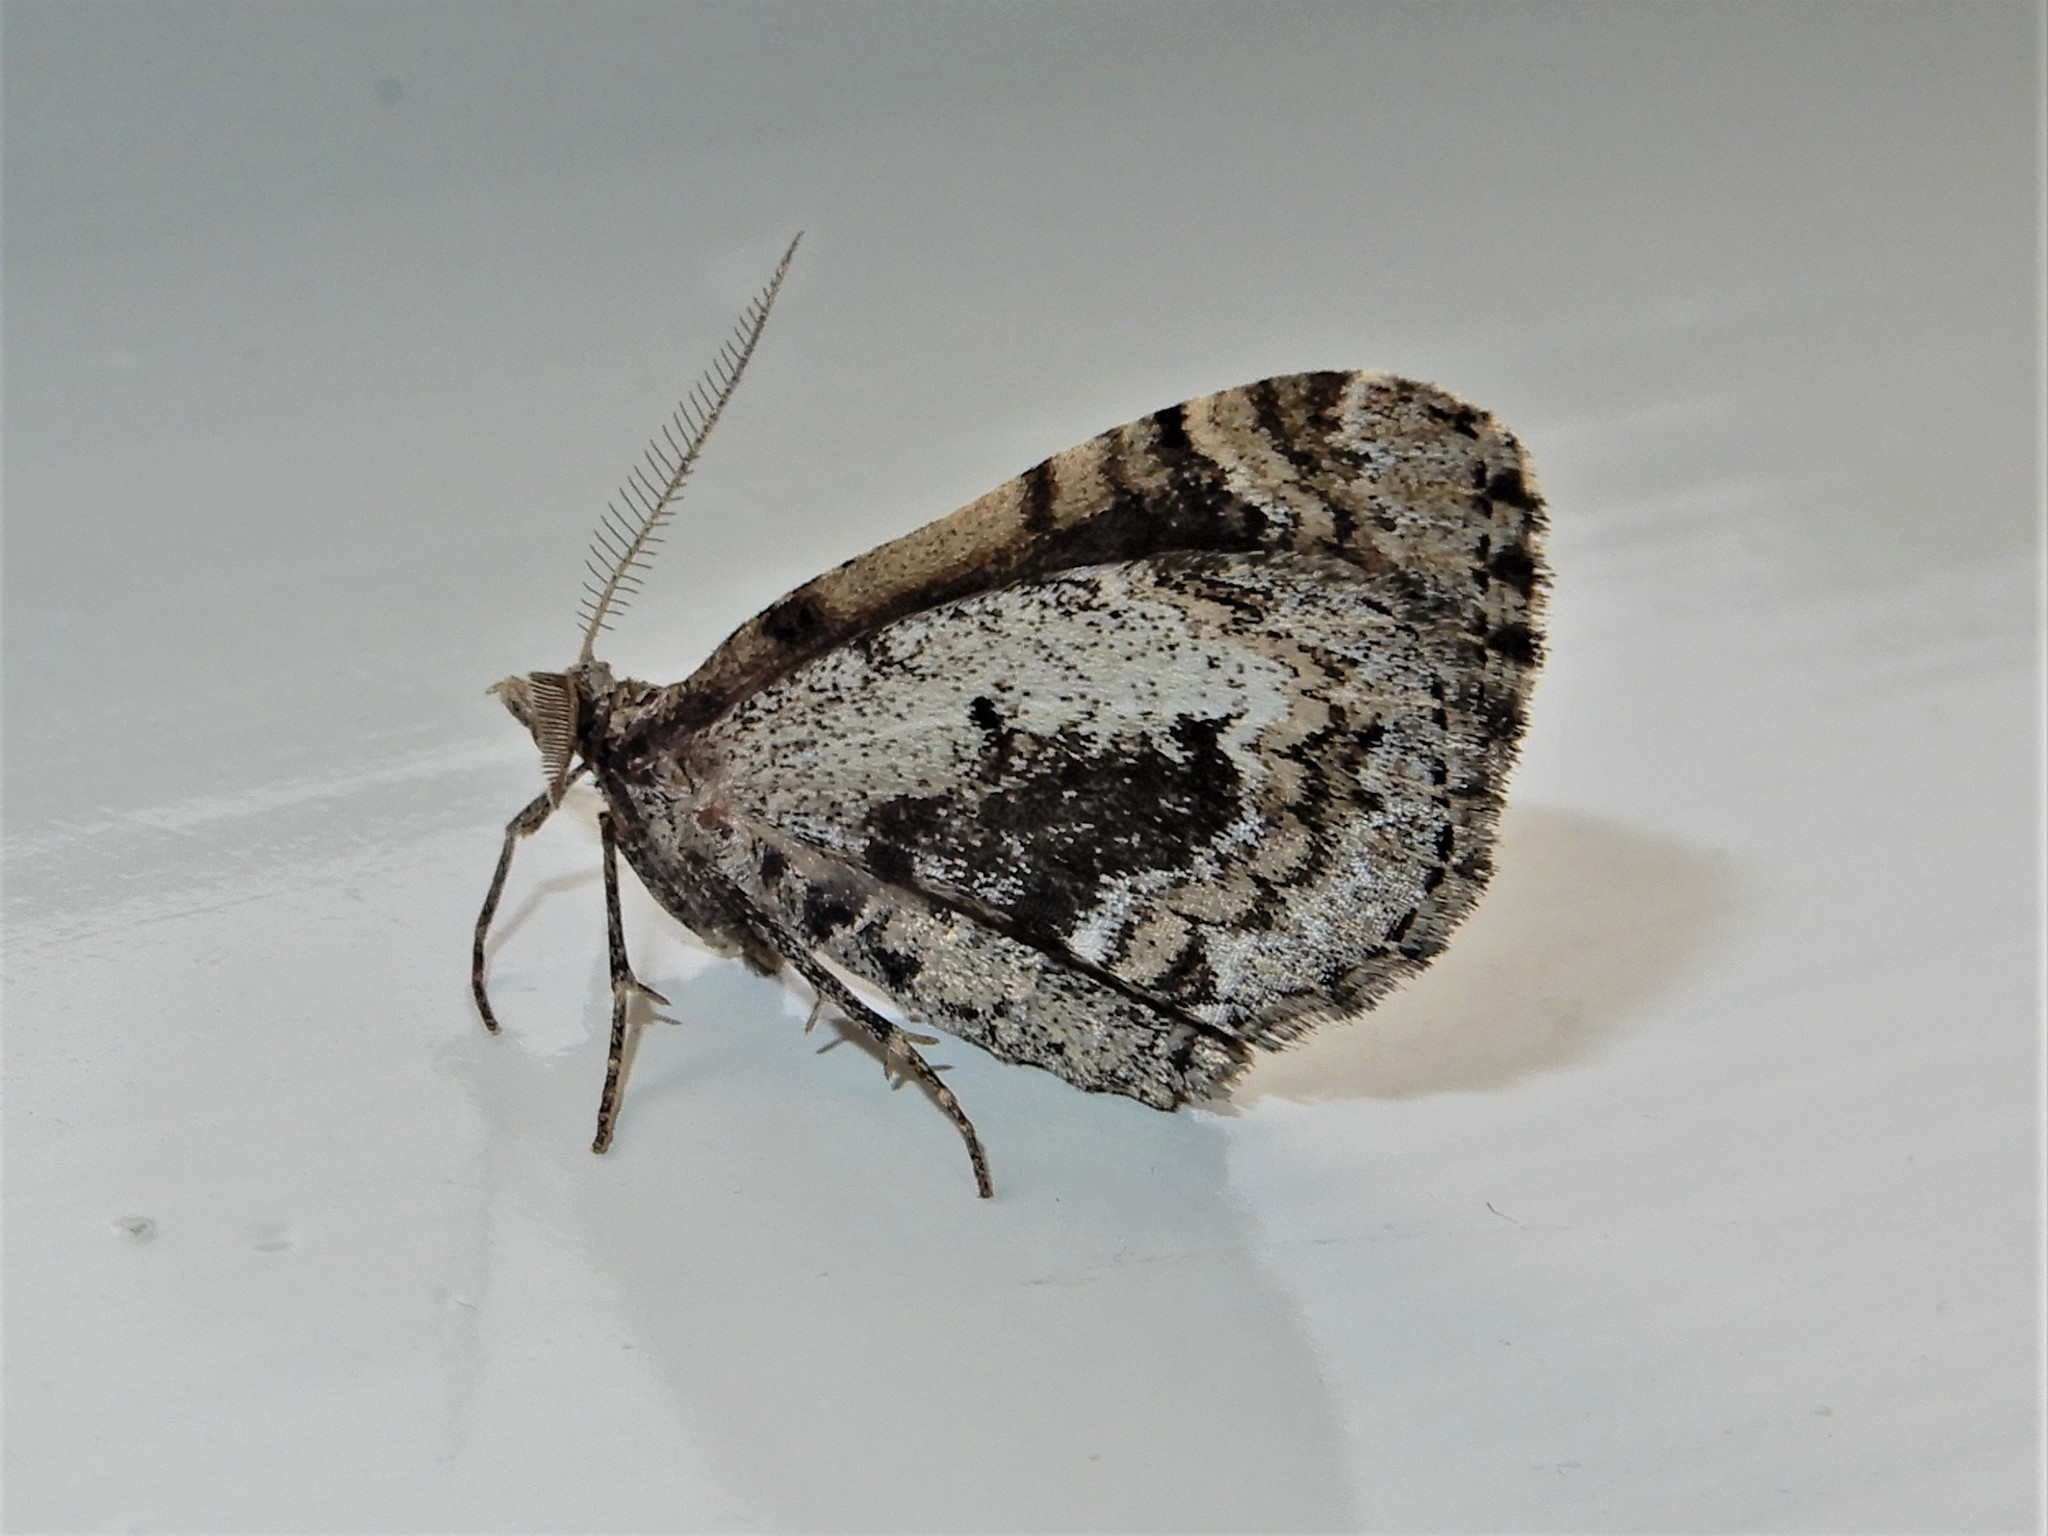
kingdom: Animalia
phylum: Arthropoda
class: Insecta
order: Lepidoptera
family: Geometridae
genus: Asaphodes
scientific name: Asaphodes aegrota
